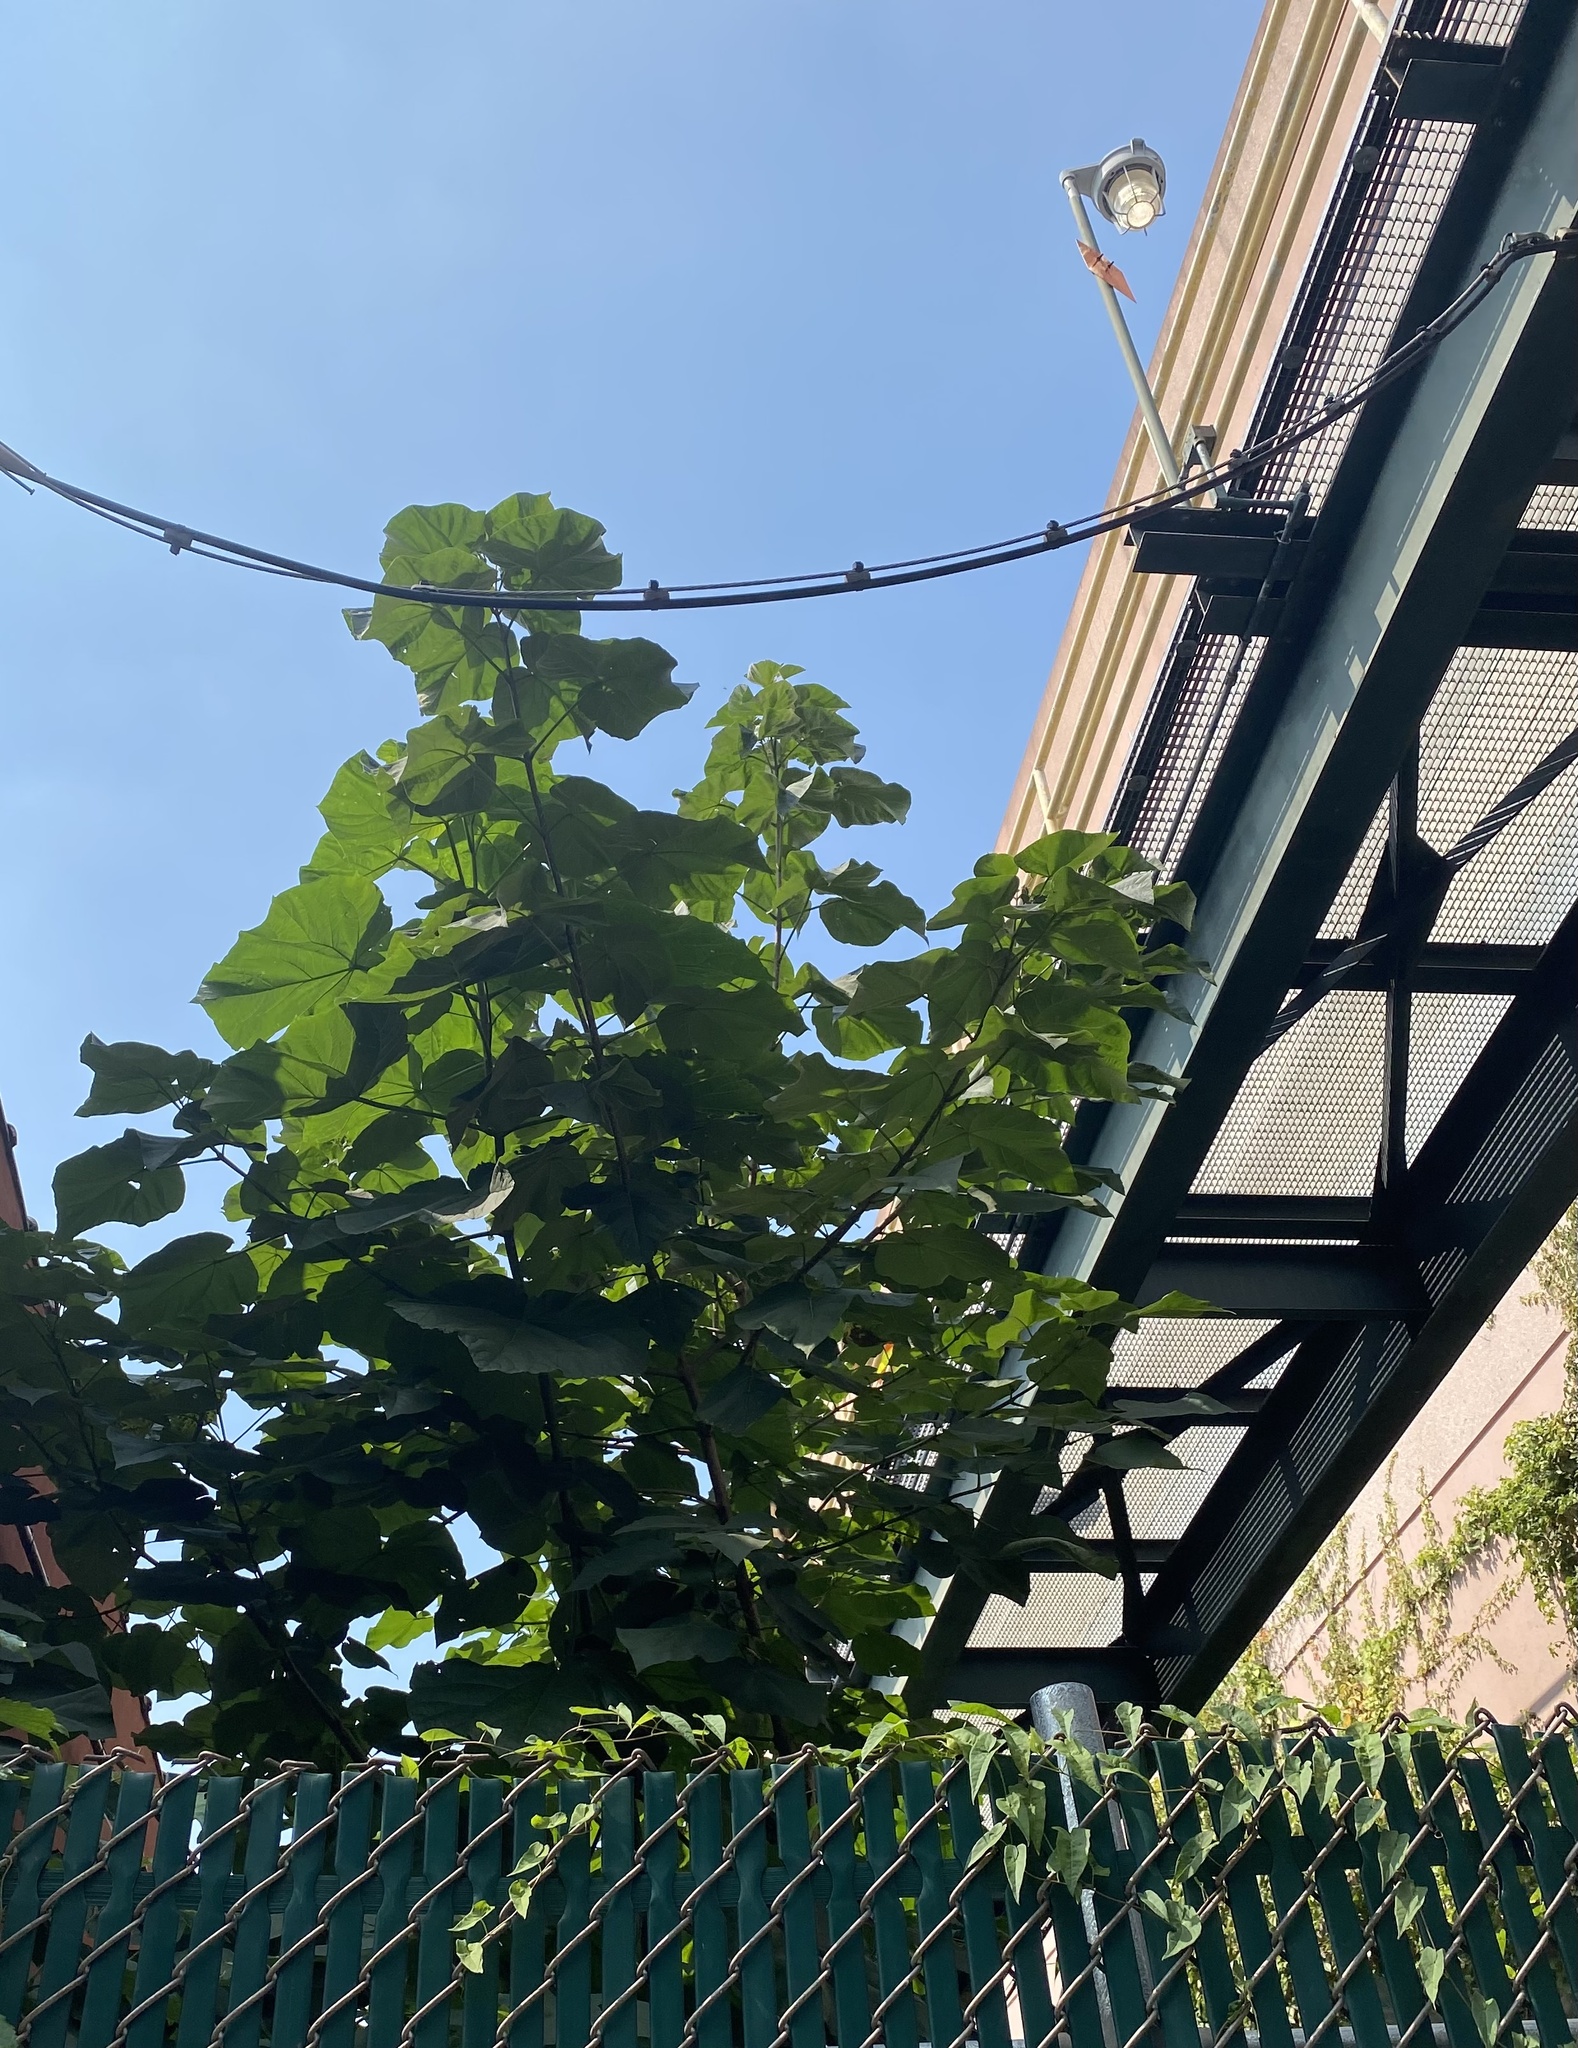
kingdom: Plantae
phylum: Tracheophyta
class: Magnoliopsida
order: Lamiales
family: Paulowniaceae
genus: Paulownia
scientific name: Paulownia tomentosa
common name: Foxglove-tree
